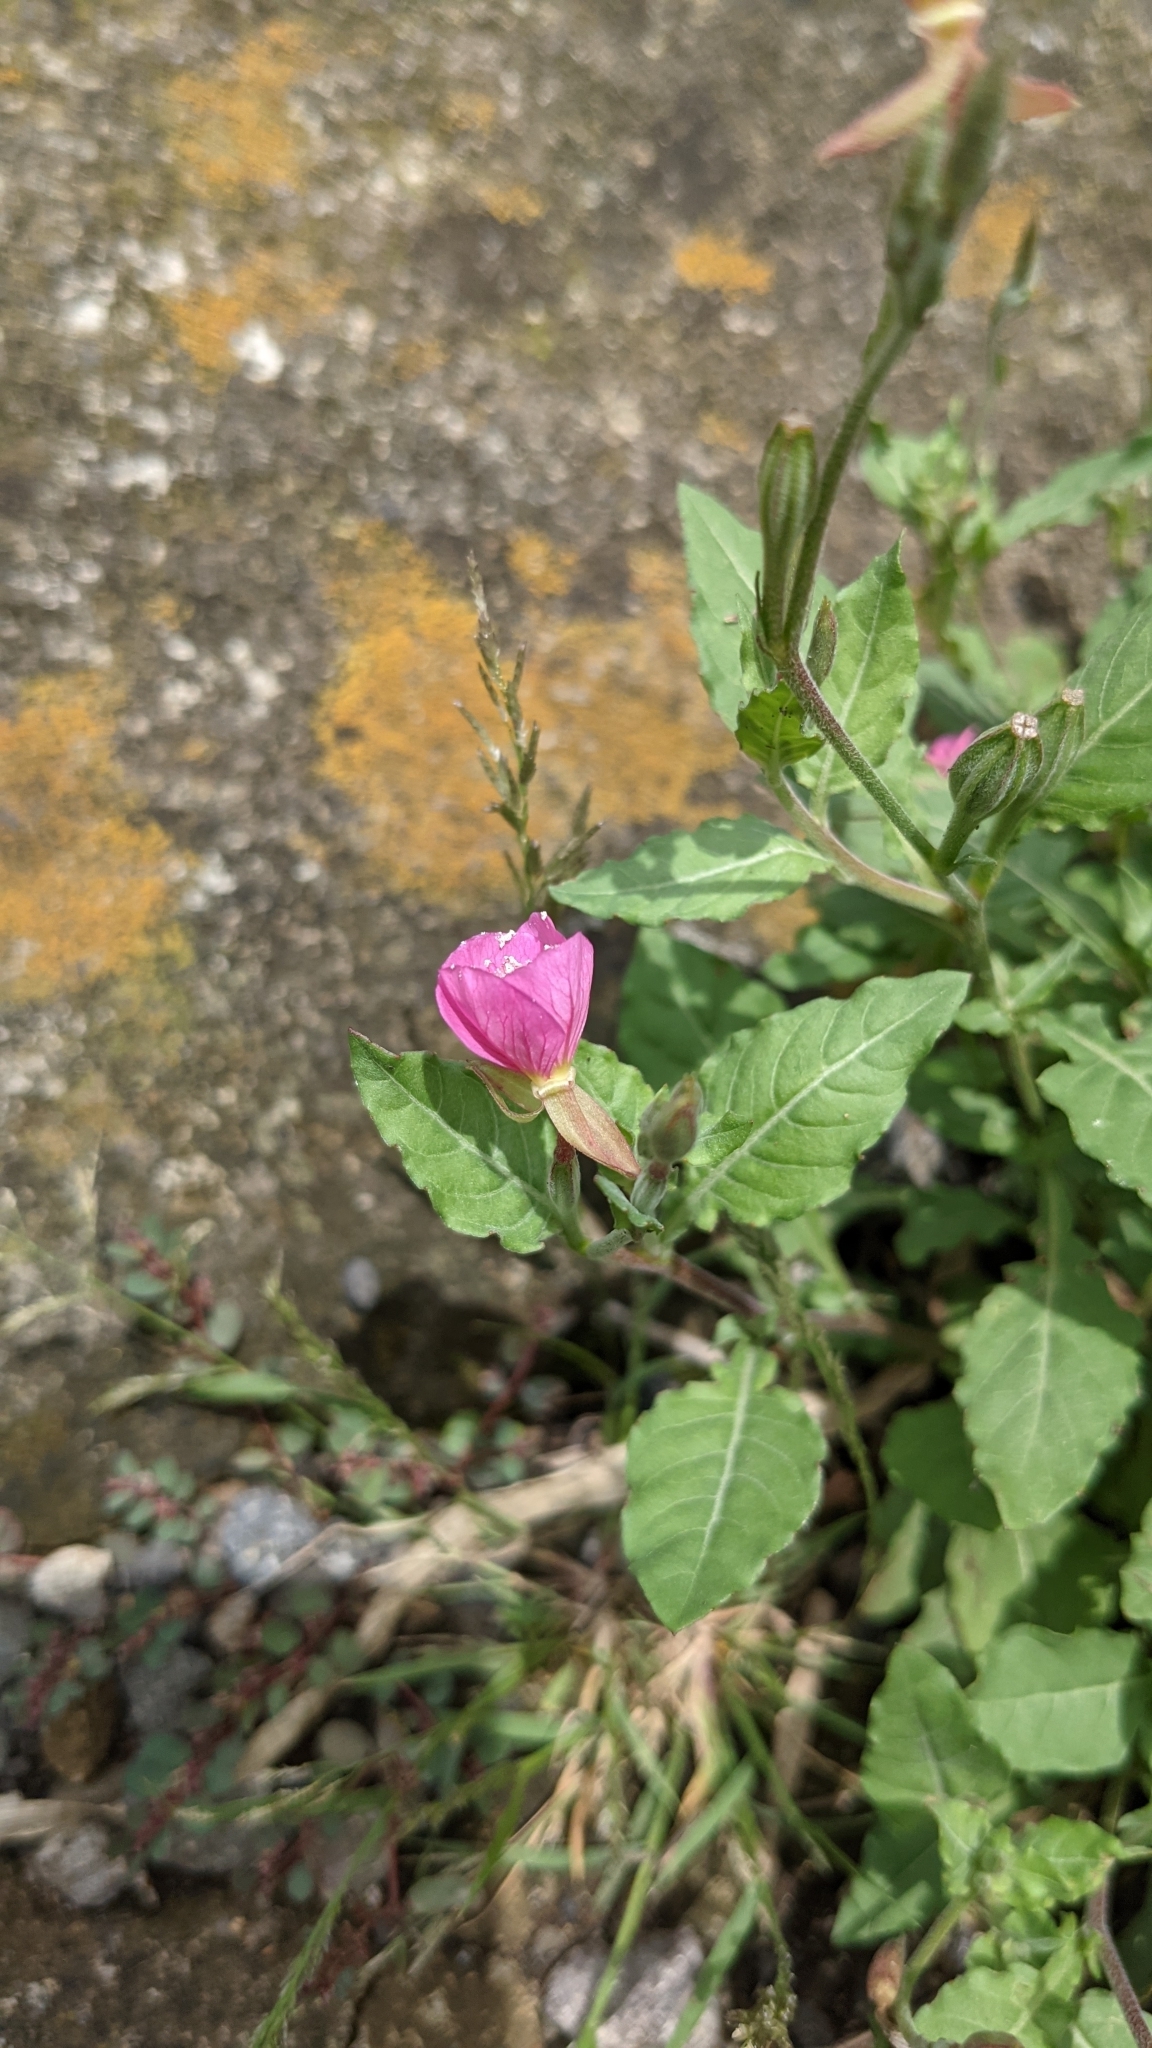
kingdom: Plantae
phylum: Tracheophyta
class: Magnoliopsida
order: Myrtales
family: Onagraceae
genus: Oenothera
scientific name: Oenothera rosea
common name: Rosy evening-primrose
